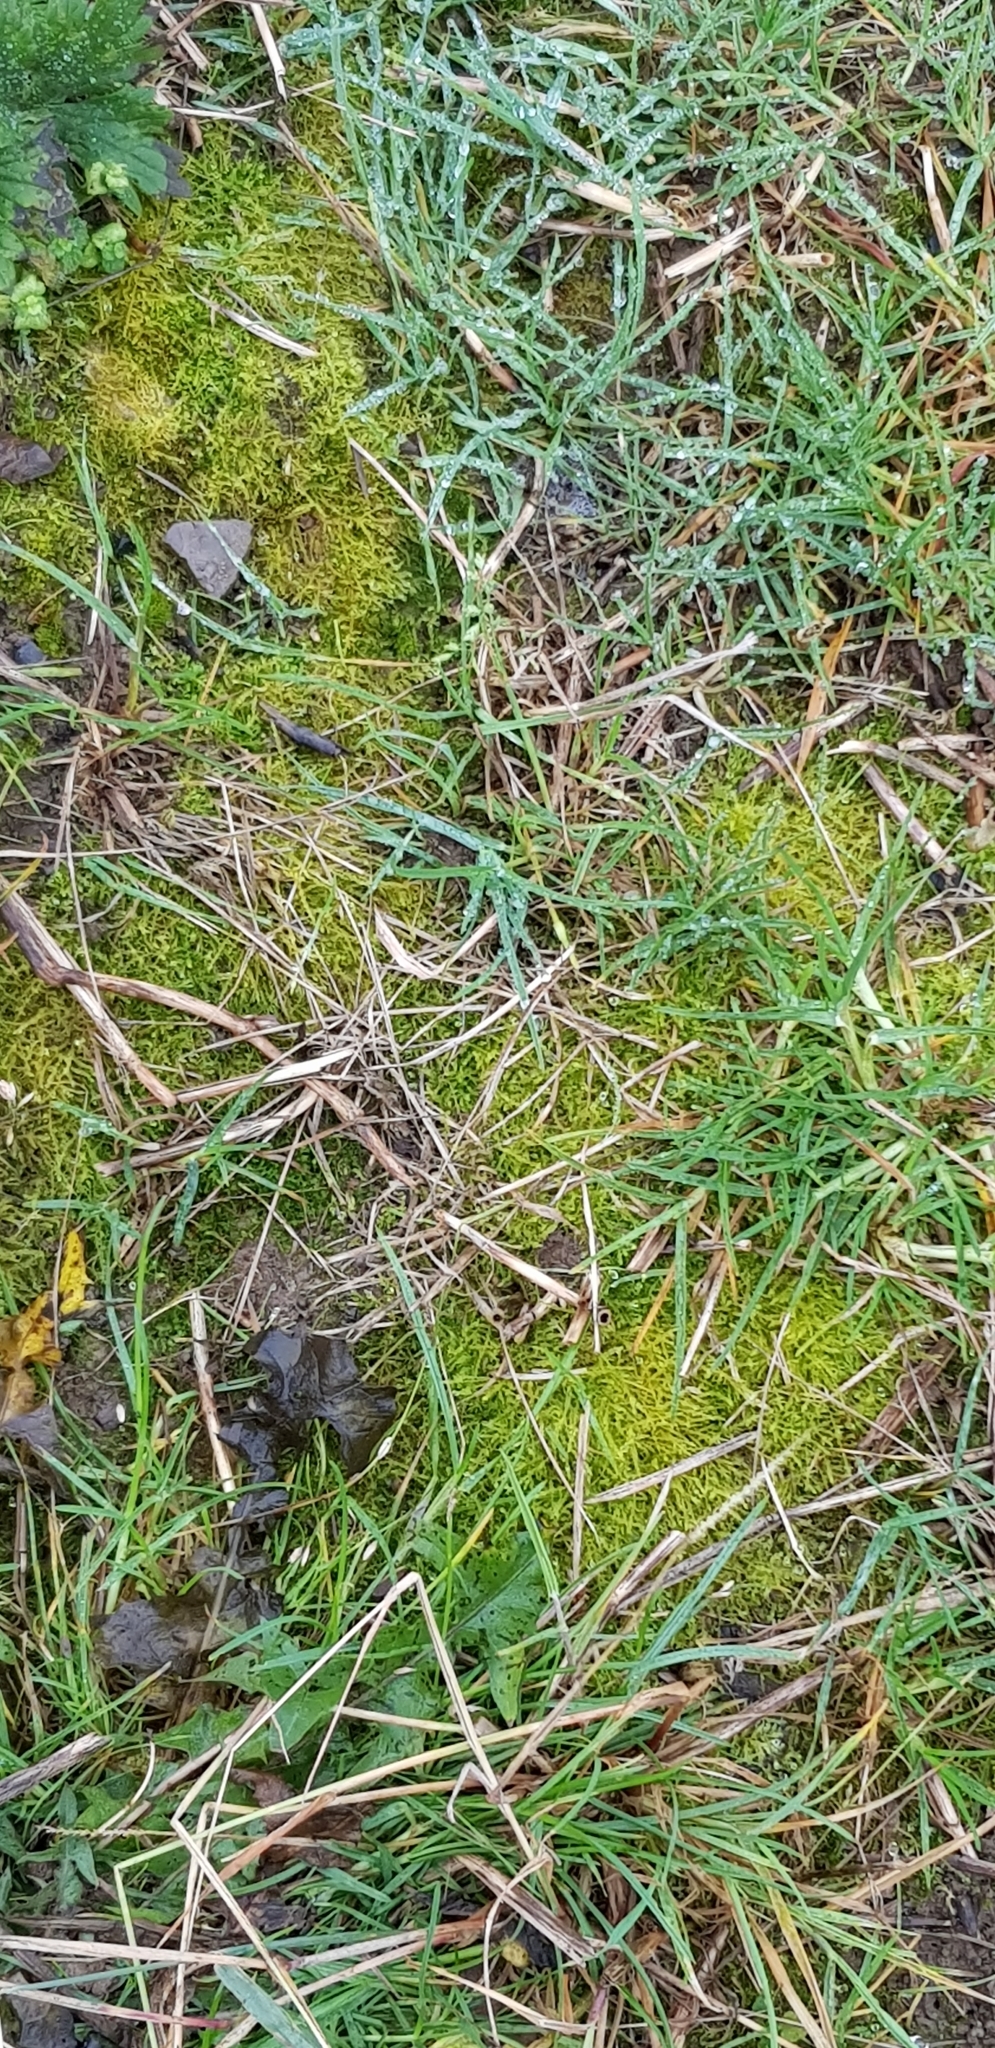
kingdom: Plantae
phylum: Bryophyta
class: Bryopsida
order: Hypnales
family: Brachytheciaceae
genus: Oxyrrhynchium
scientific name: Oxyrrhynchium hians
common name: Spreading beaked moss
